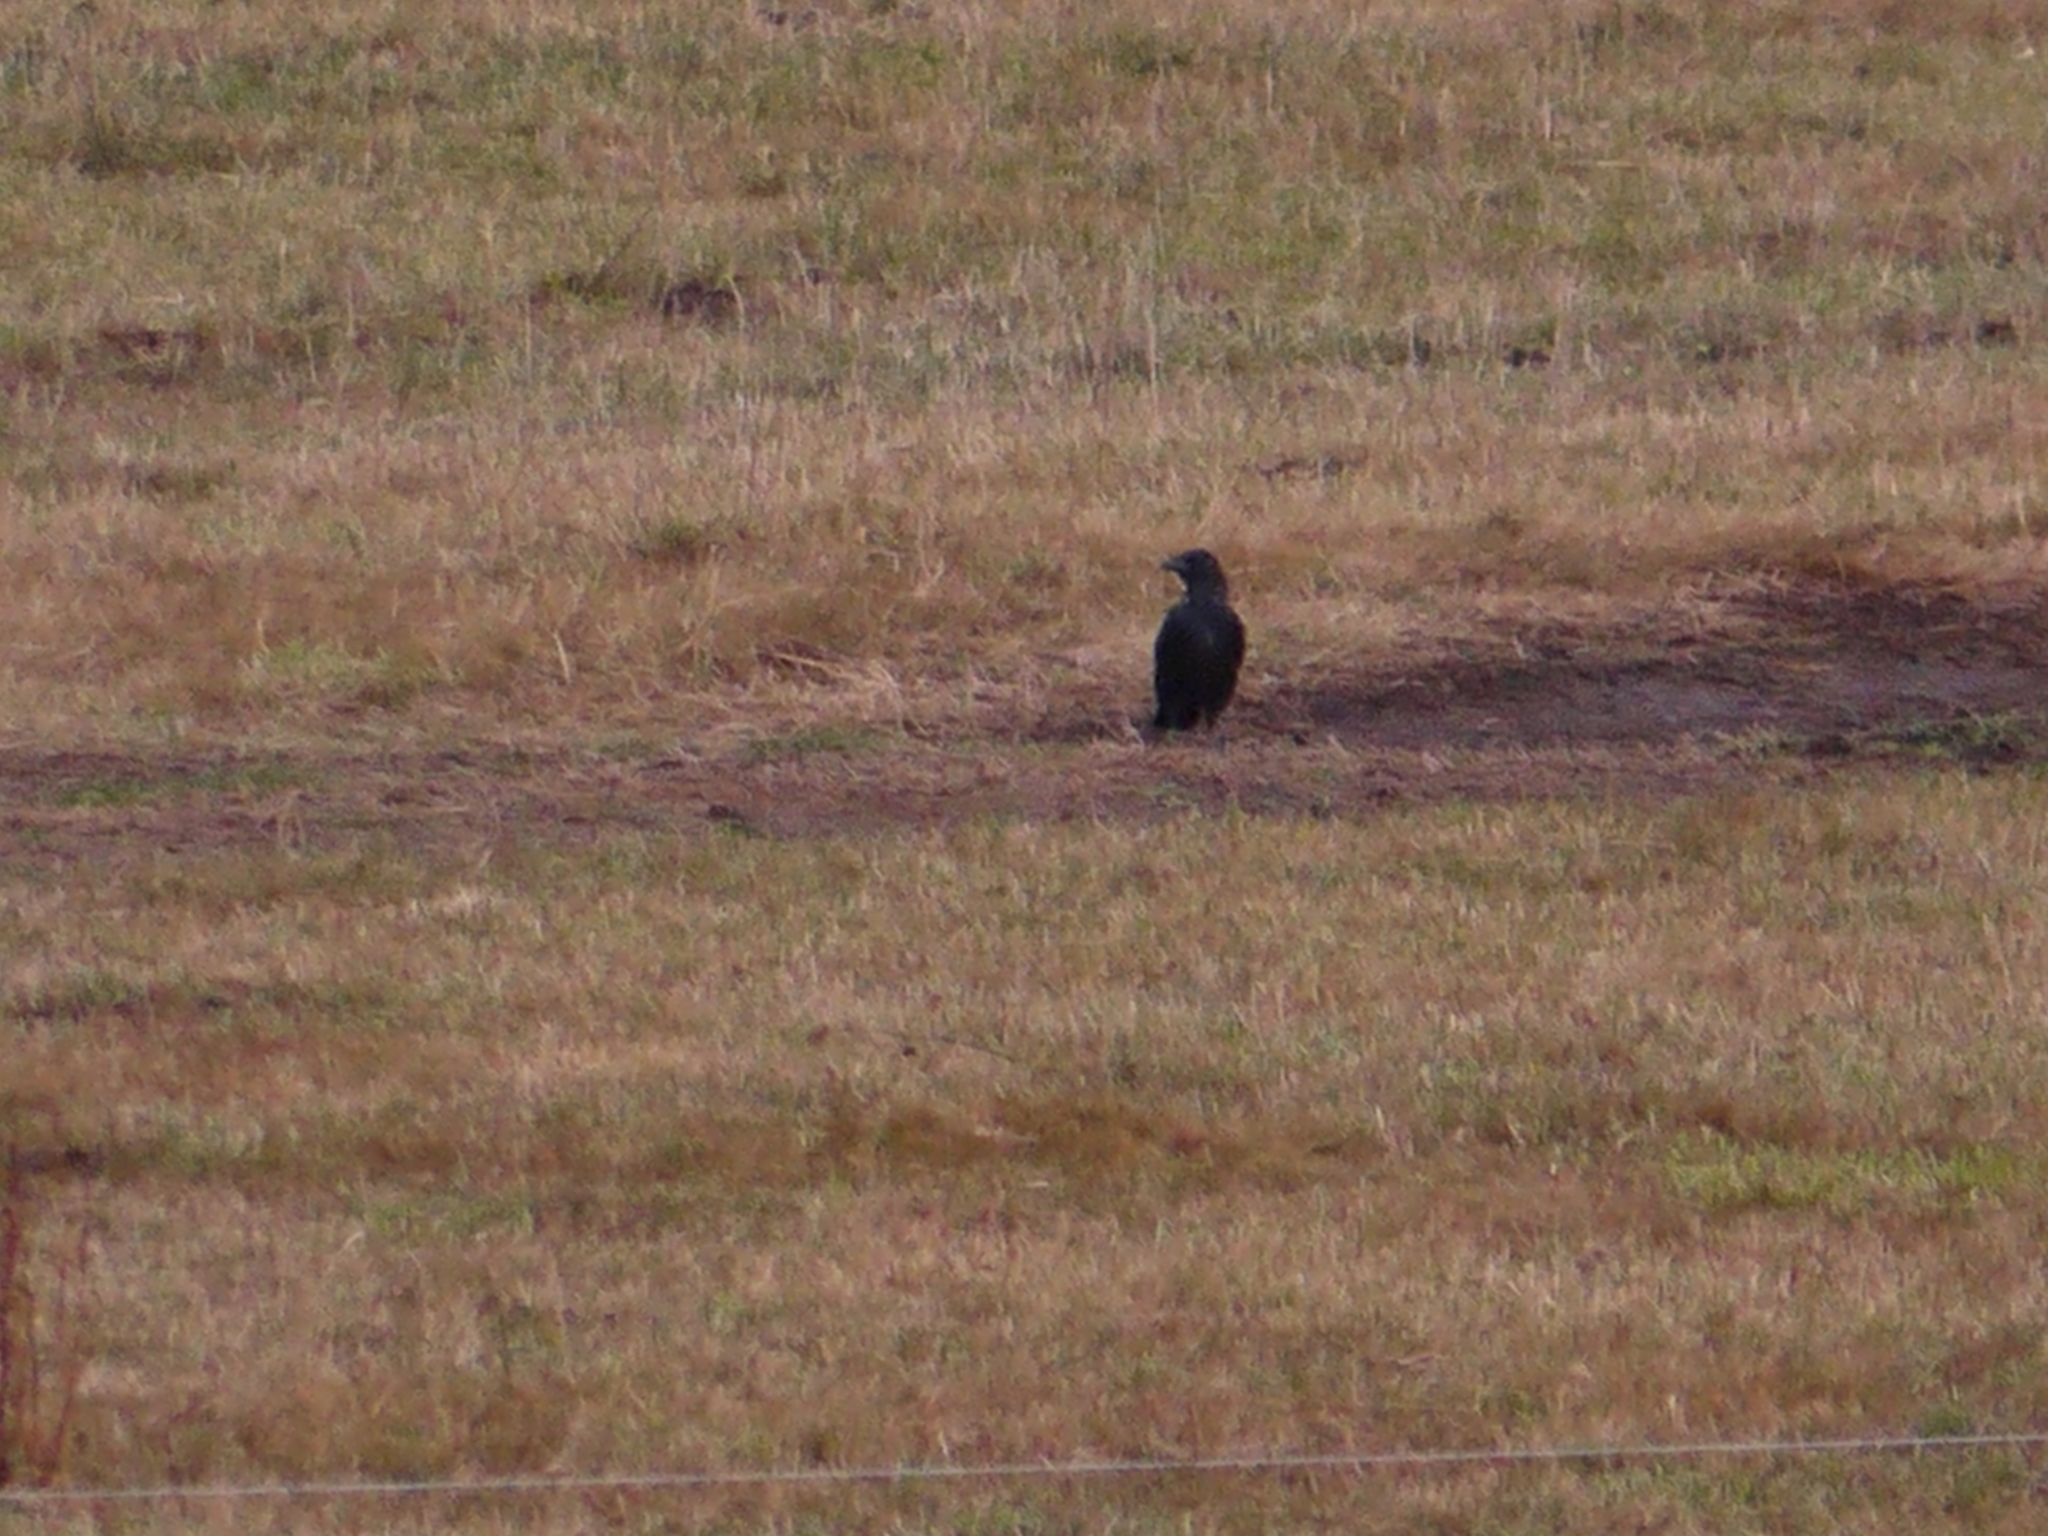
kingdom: Animalia
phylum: Chordata
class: Aves
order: Passeriformes
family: Corvidae
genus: Corvus
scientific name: Corvus corax
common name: Common raven
